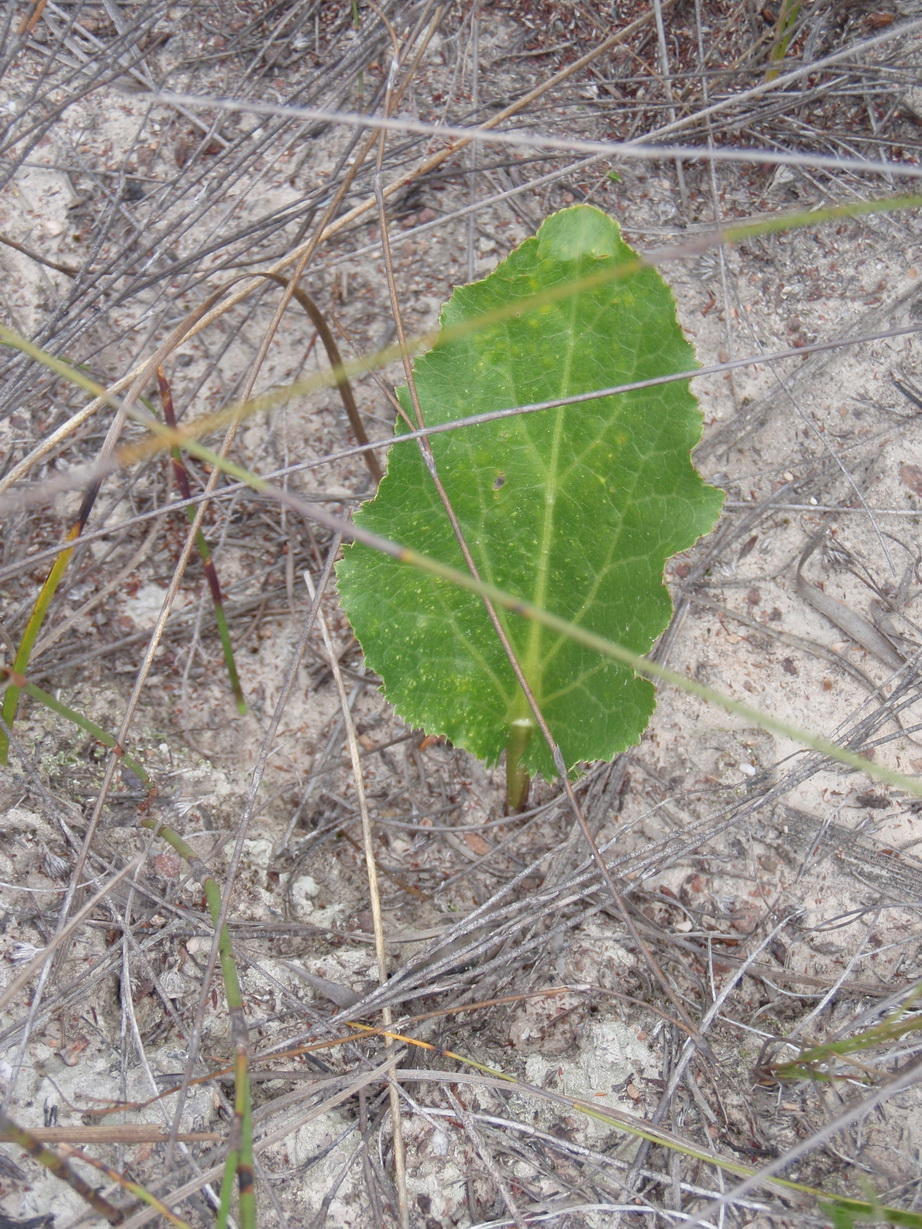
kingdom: Plantae
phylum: Tracheophyta
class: Magnoliopsida
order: Apiales
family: Apiaceae
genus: Lichtensteinia
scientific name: Lichtensteinia trifida
